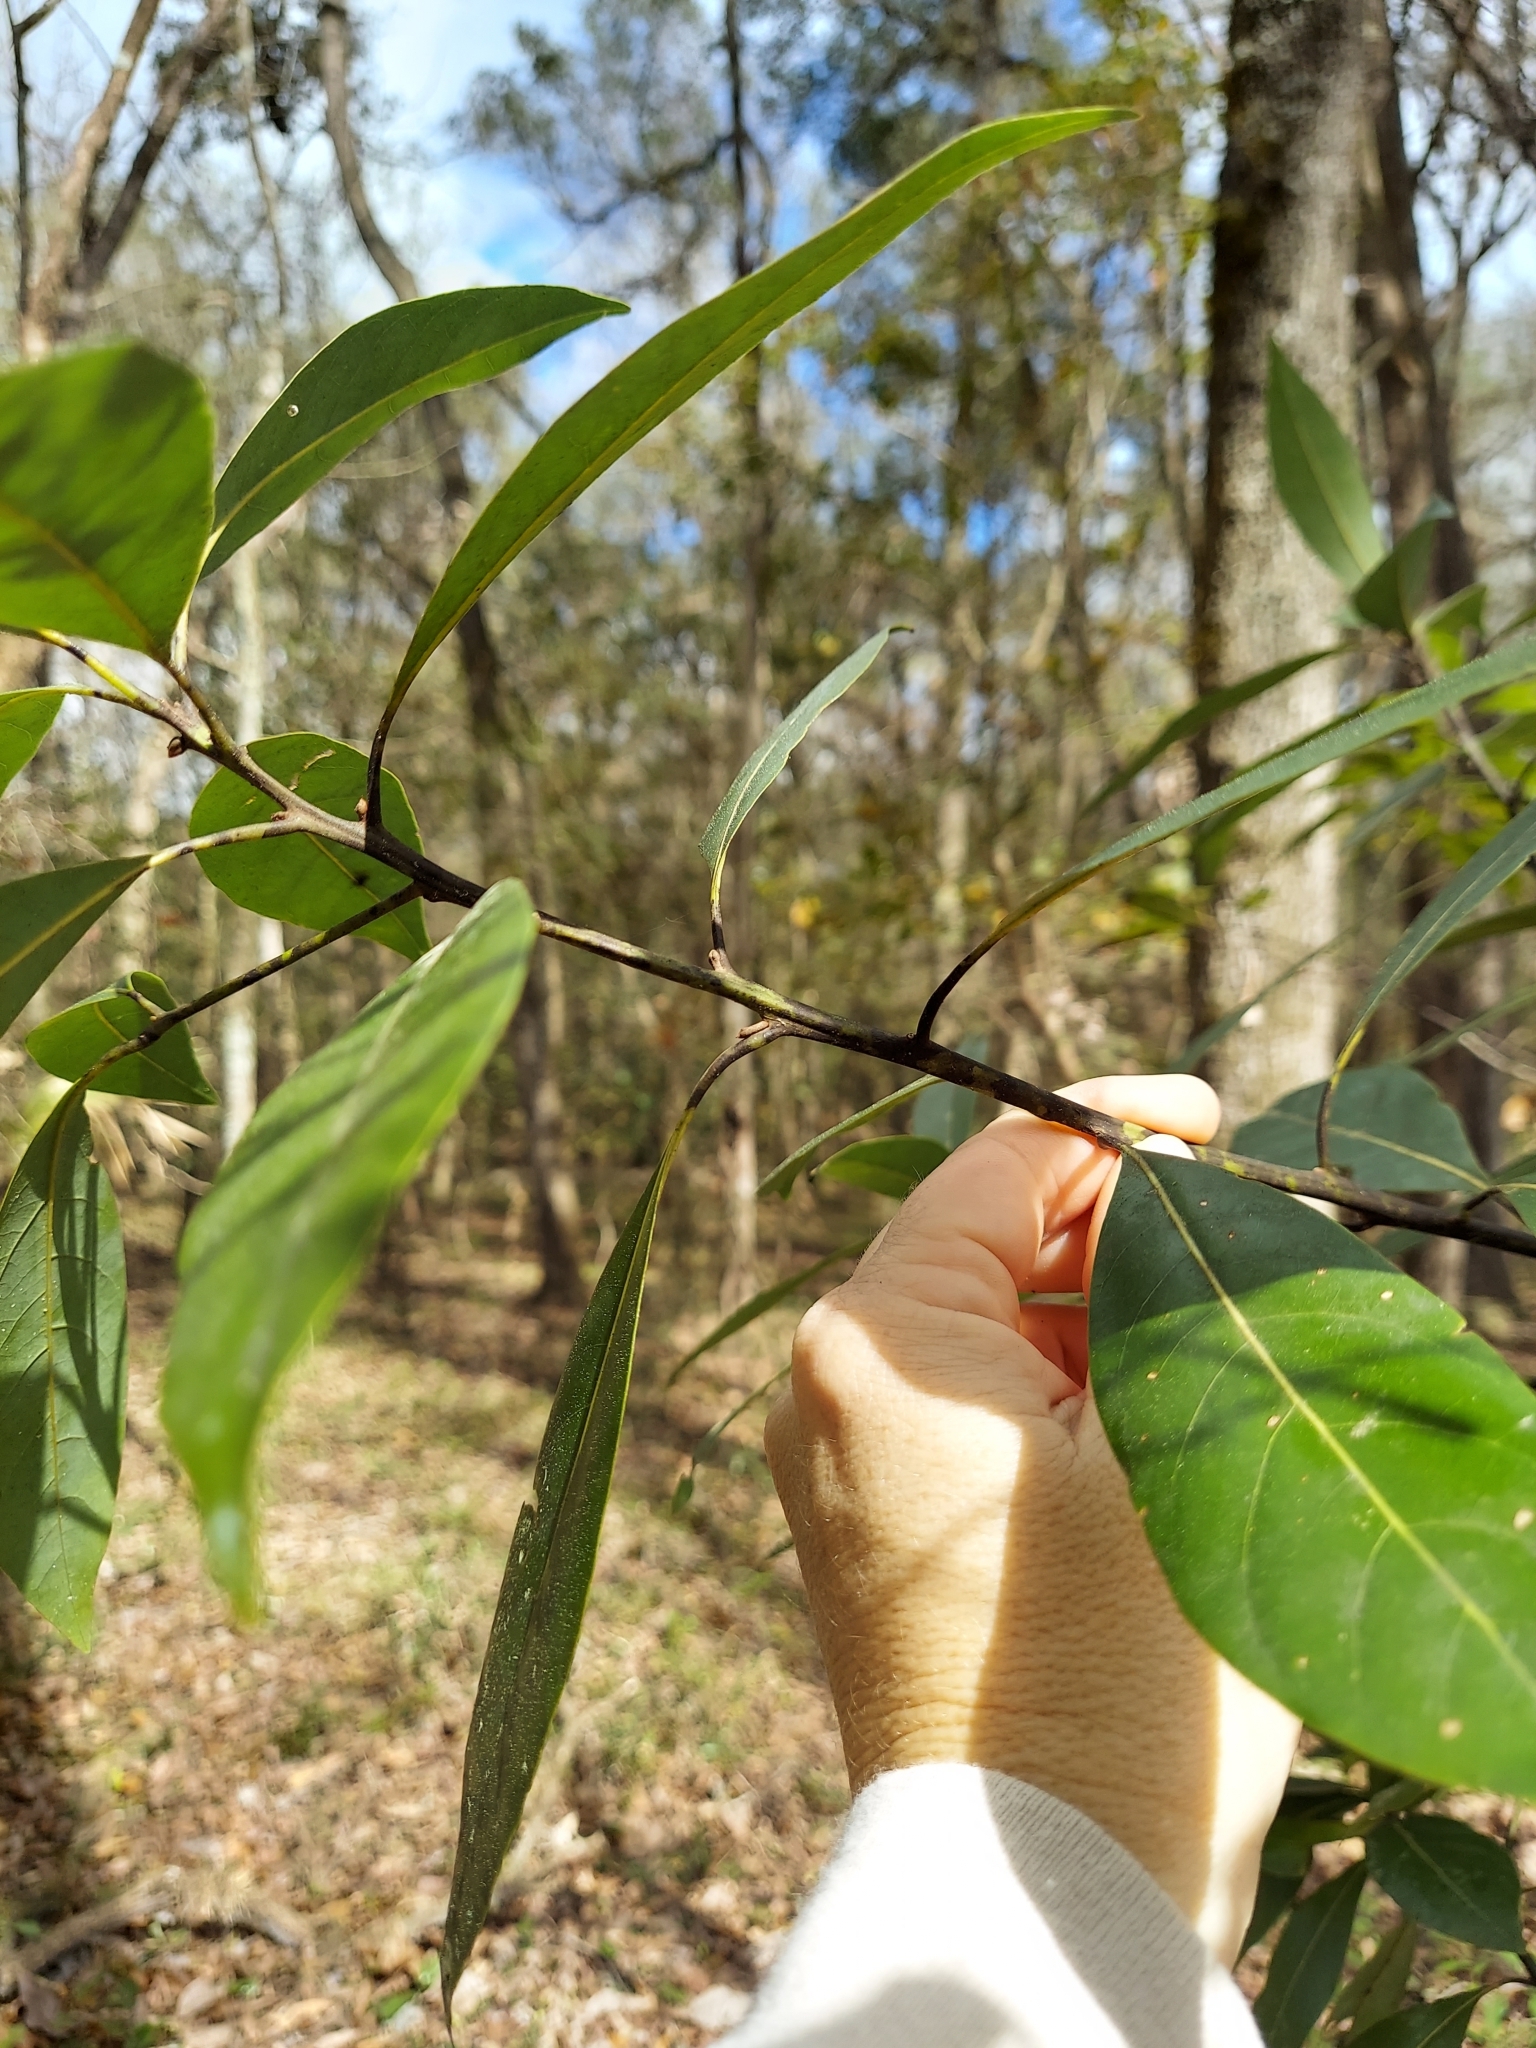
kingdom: Plantae
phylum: Tracheophyta
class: Magnoliopsida
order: Laurales
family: Lauraceae
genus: Persea
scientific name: Persea borbonia
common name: Redbay
